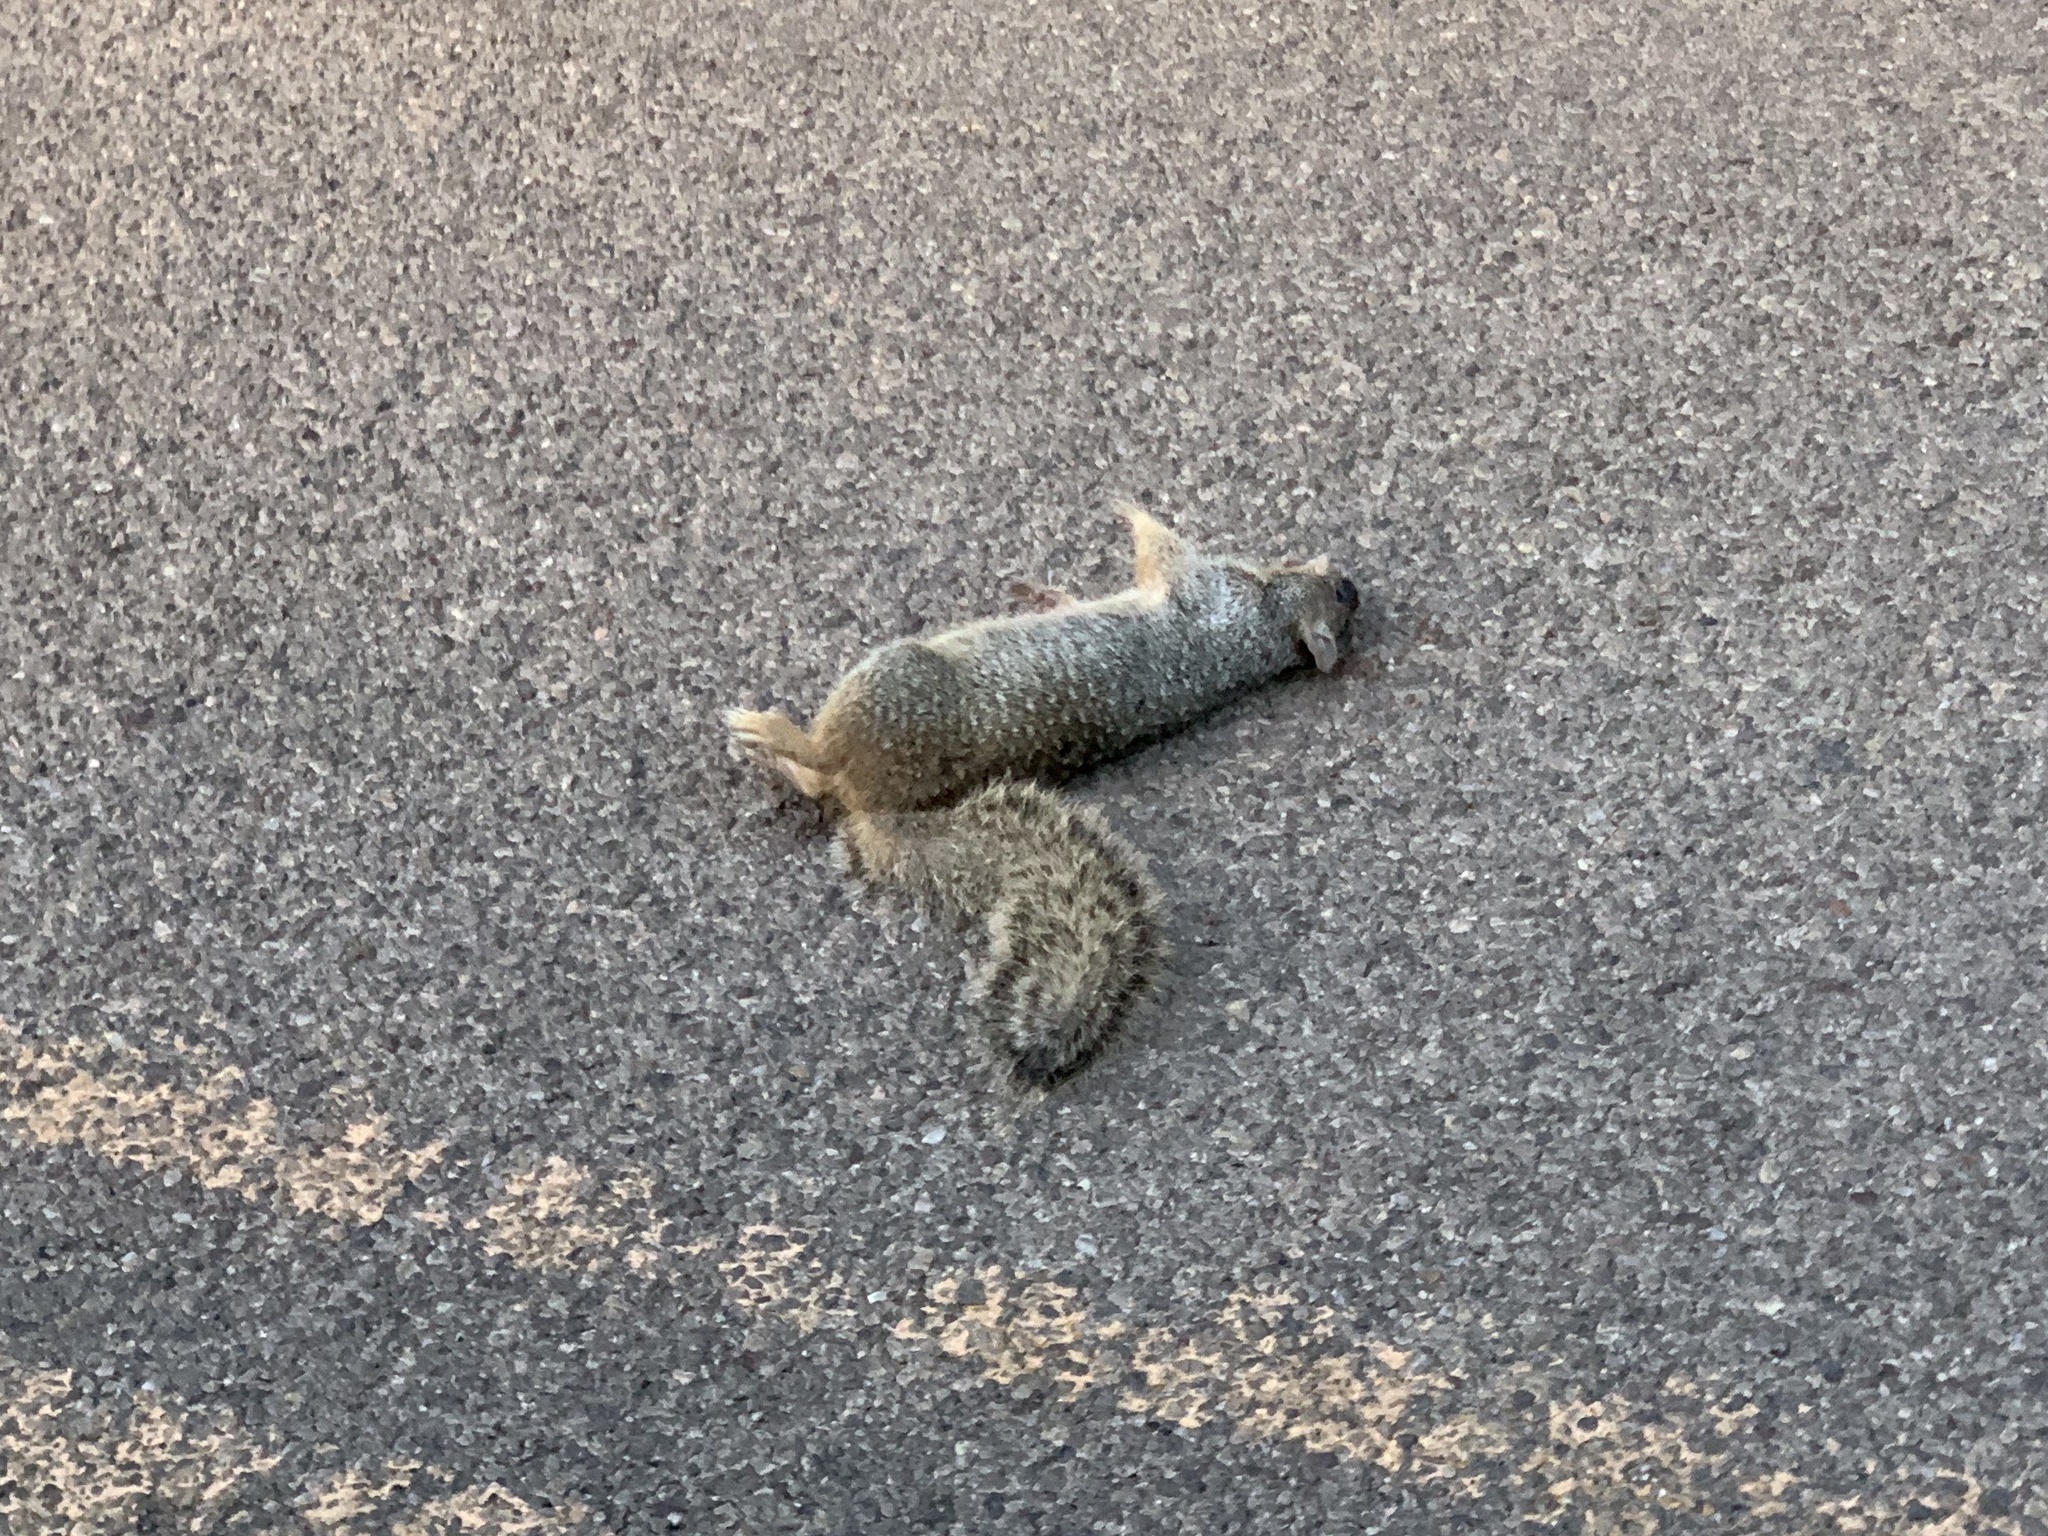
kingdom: Animalia
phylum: Chordata
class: Mammalia
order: Rodentia
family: Sciuridae
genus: Otospermophilus
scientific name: Otospermophilus variegatus
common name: Rock squirrel
